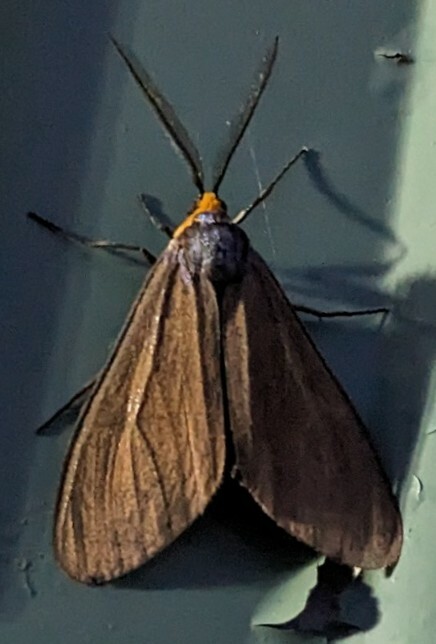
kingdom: Animalia
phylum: Arthropoda
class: Insecta
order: Lepidoptera
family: Erebidae
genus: Ctenucha
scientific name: Ctenucha virginica
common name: Virginia ctenucha moth
